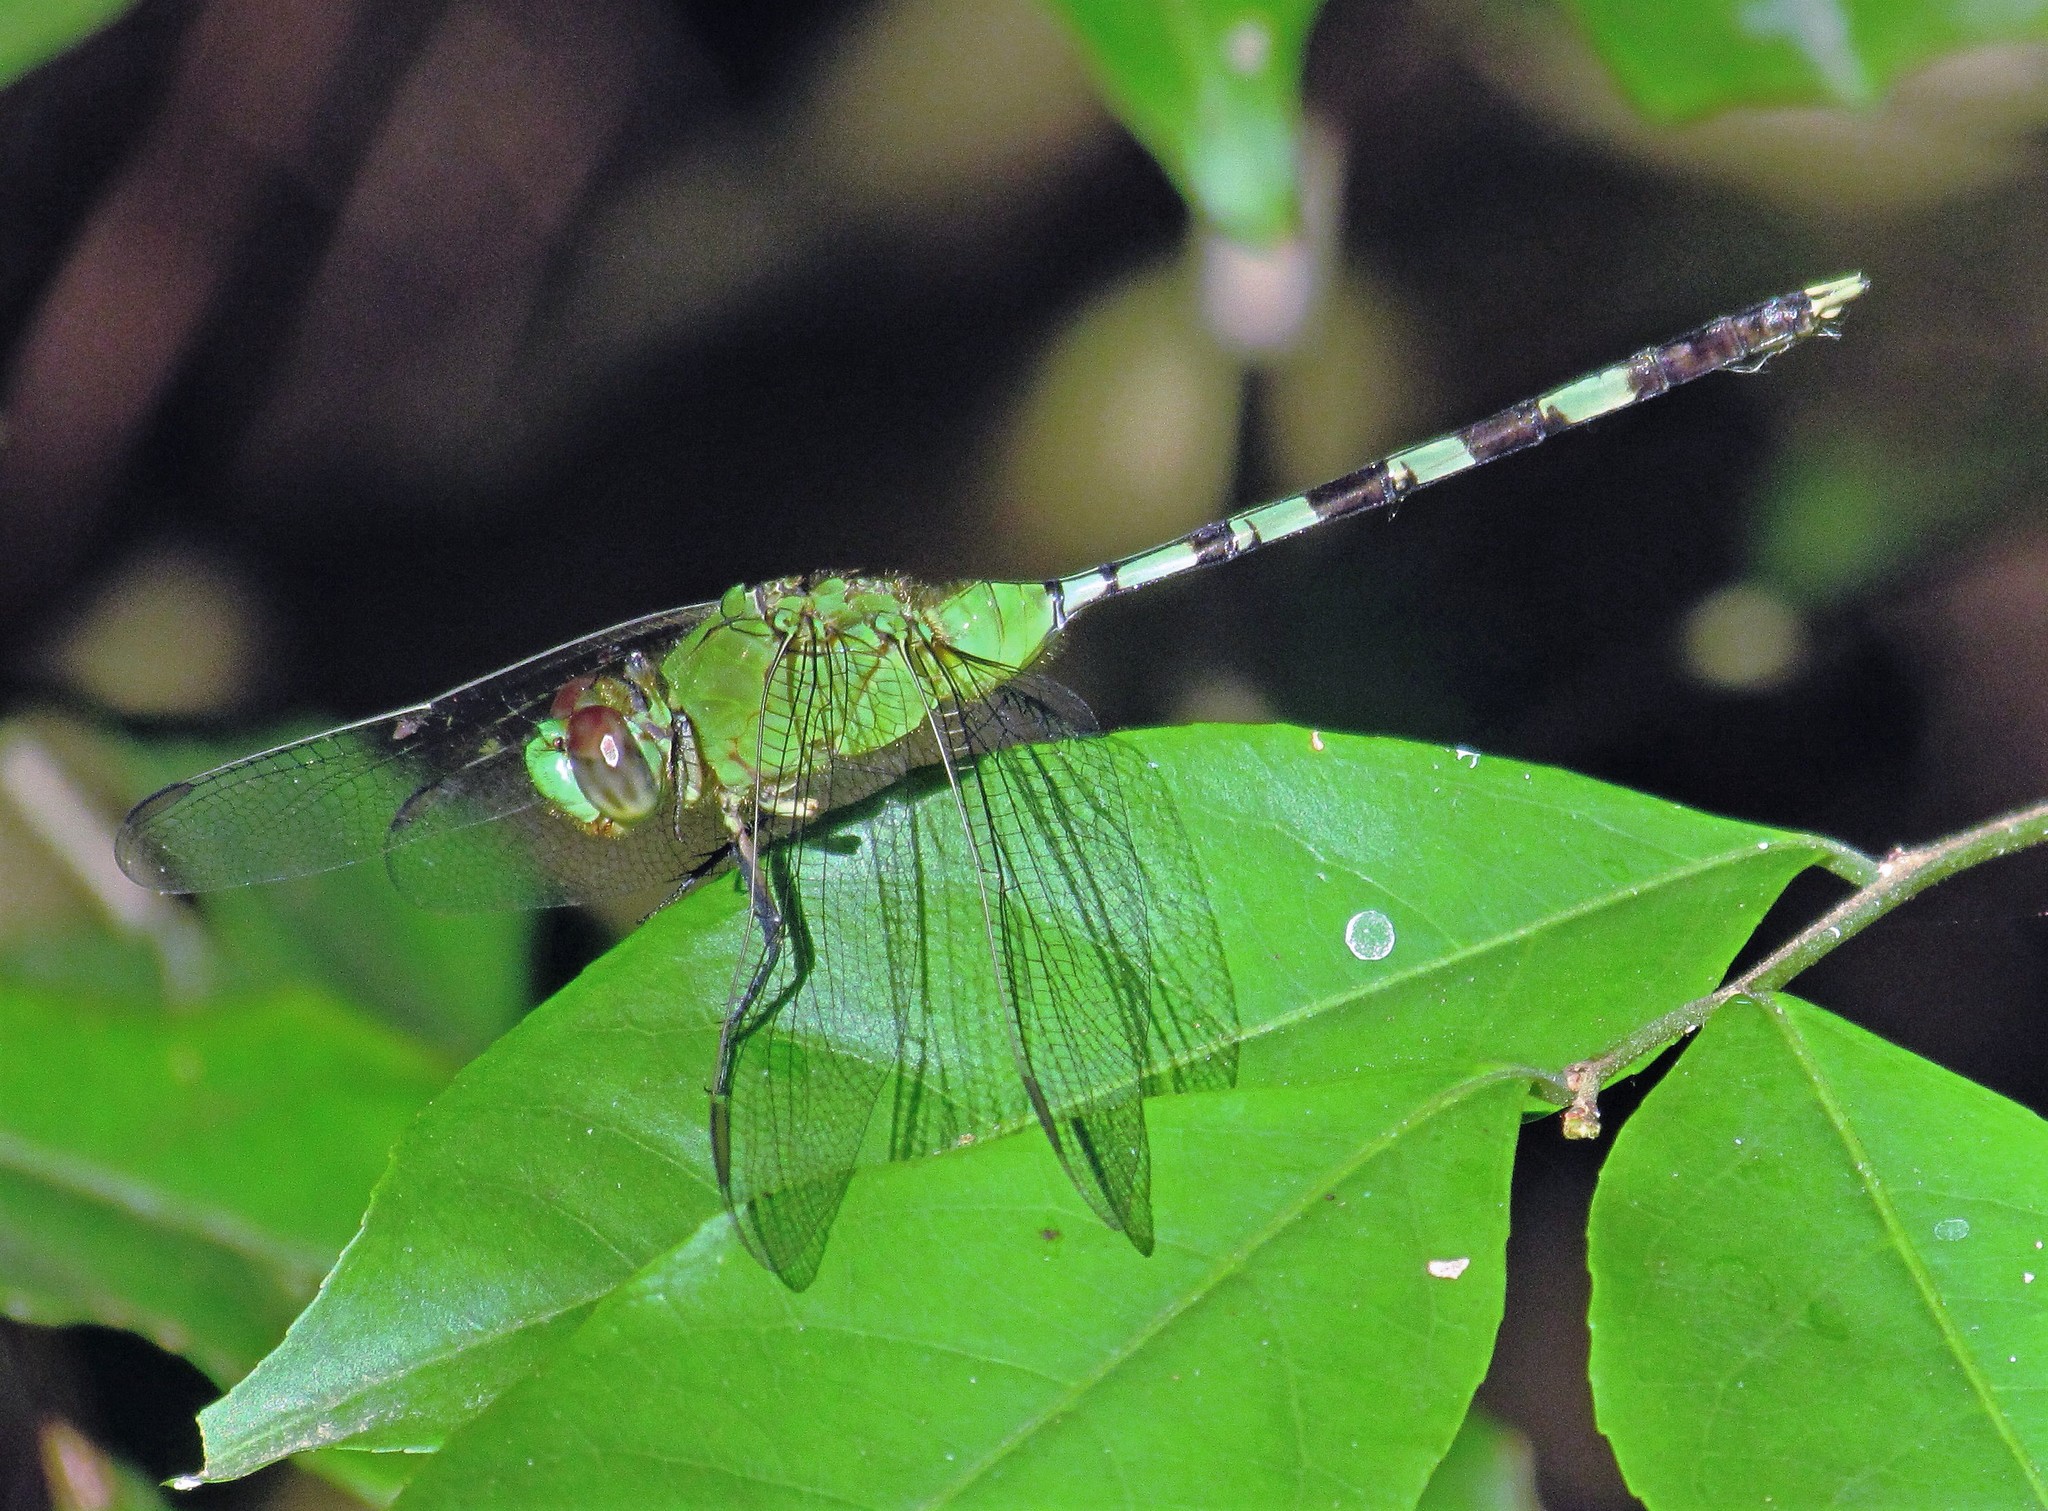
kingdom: Animalia
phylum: Arthropoda
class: Insecta
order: Odonata
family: Libellulidae
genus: Erythemis
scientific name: Erythemis vesiculosa
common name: Great pondhawk
